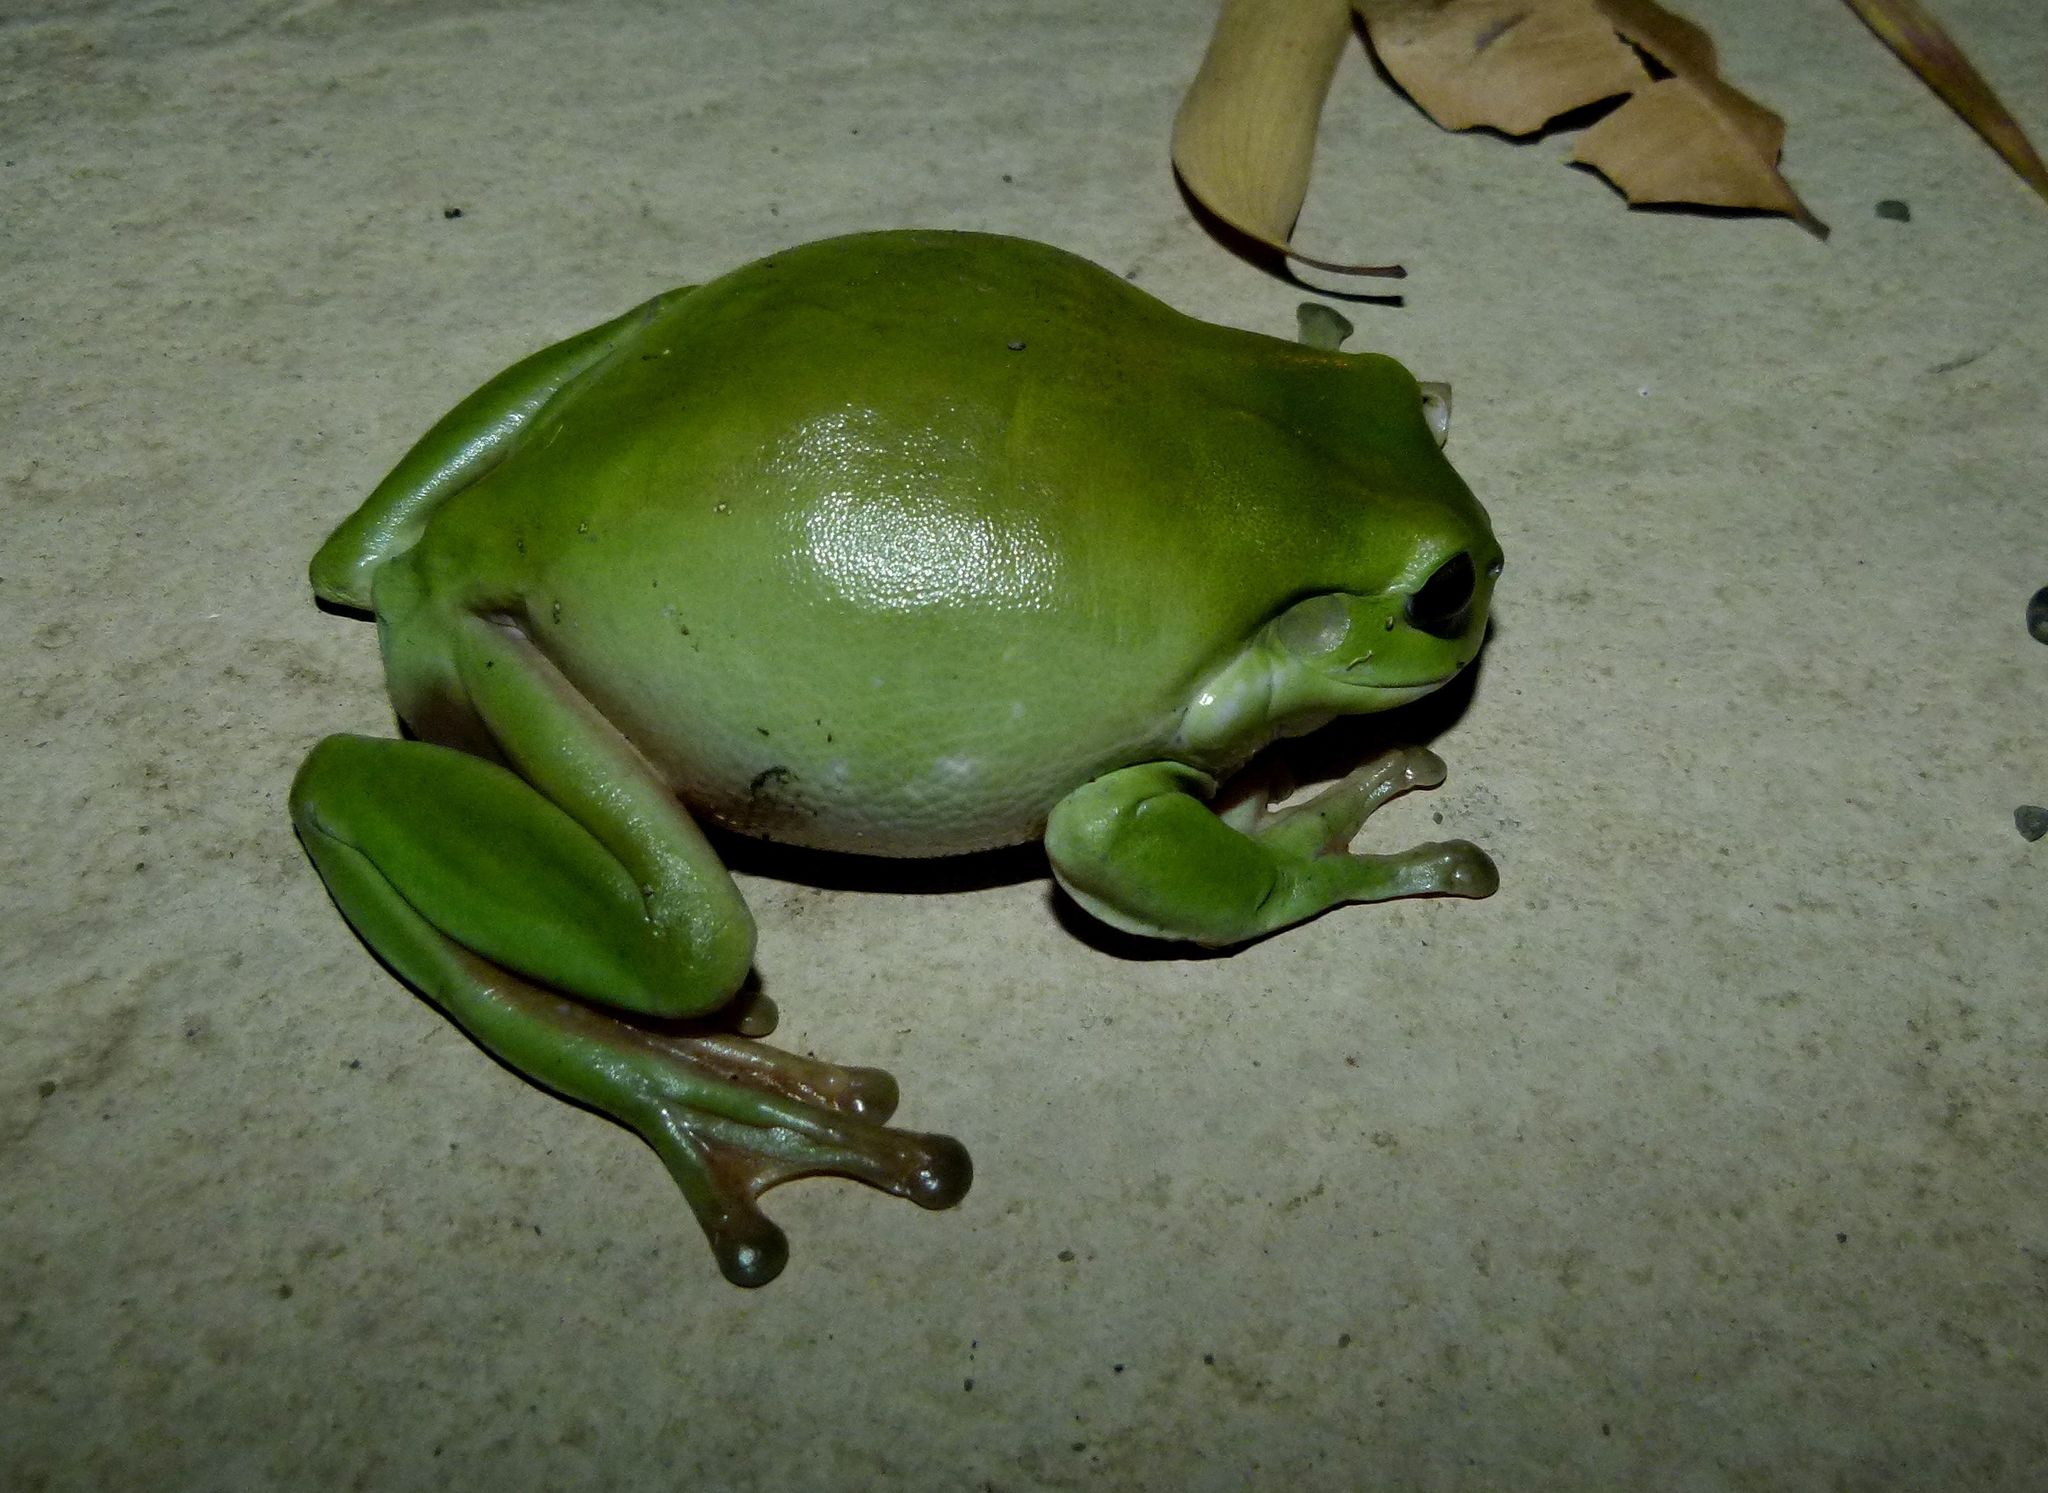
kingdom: Animalia
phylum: Chordata
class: Amphibia
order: Anura
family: Pelodryadidae
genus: Ranoidea
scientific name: Ranoidea caerulea
